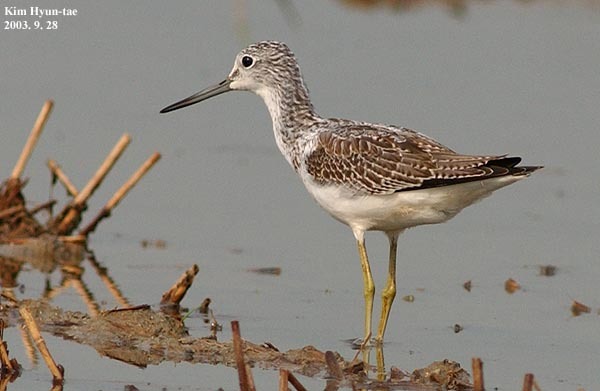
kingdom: Animalia
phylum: Chordata
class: Aves
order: Charadriiformes
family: Scolopacidae
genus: Tringa
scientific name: Tringa nebularia
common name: Common greenshank
